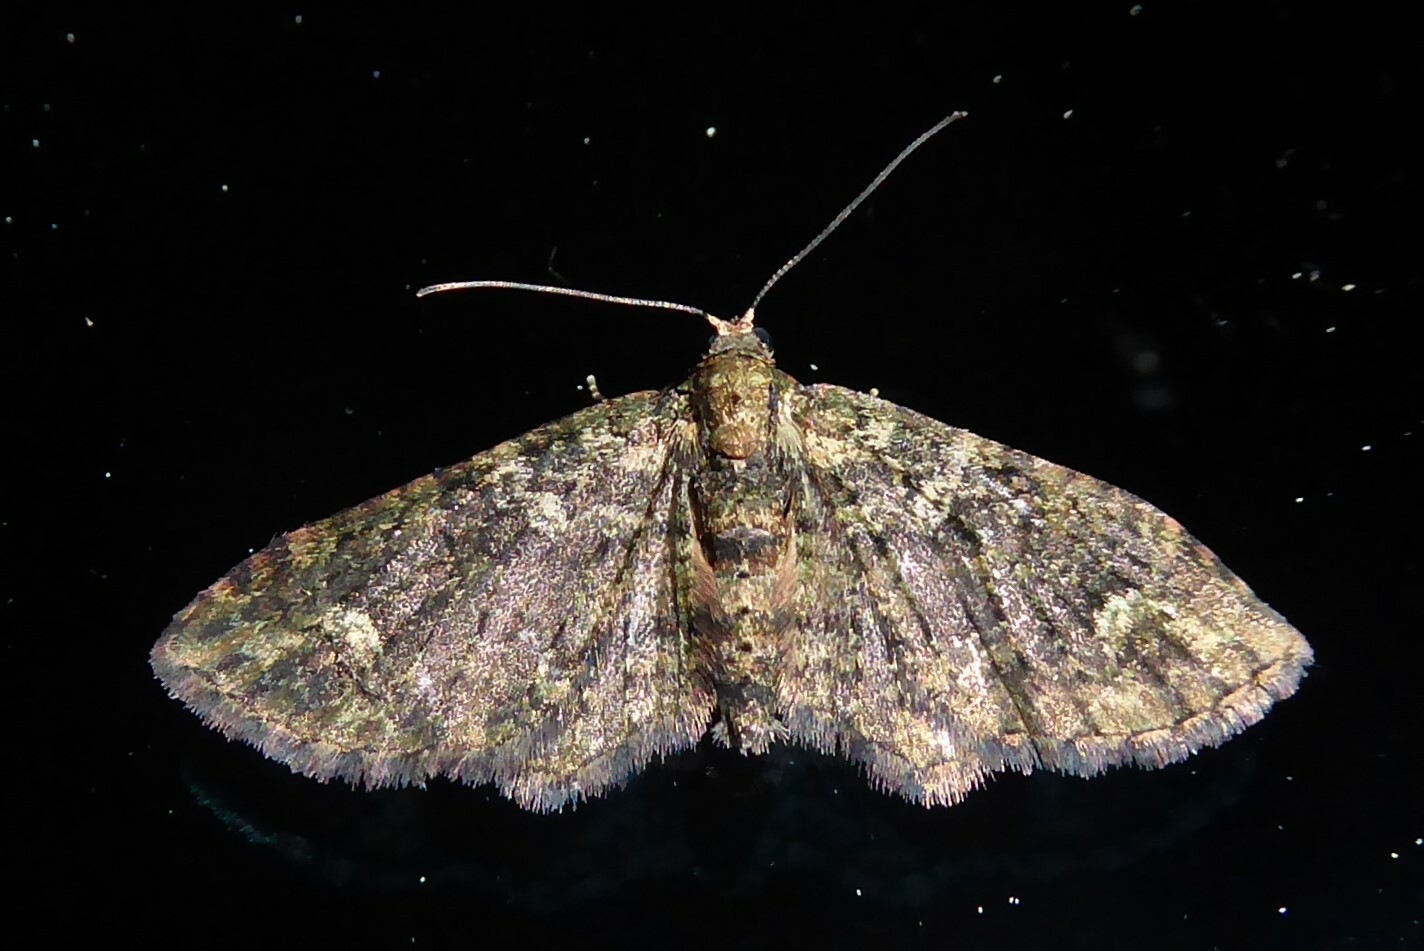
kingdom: Animalia
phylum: Arthropoda
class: Insecta
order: Lepidoptera
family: Geometridae
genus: Pasiphilodes
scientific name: Pasiphilodes testulata
